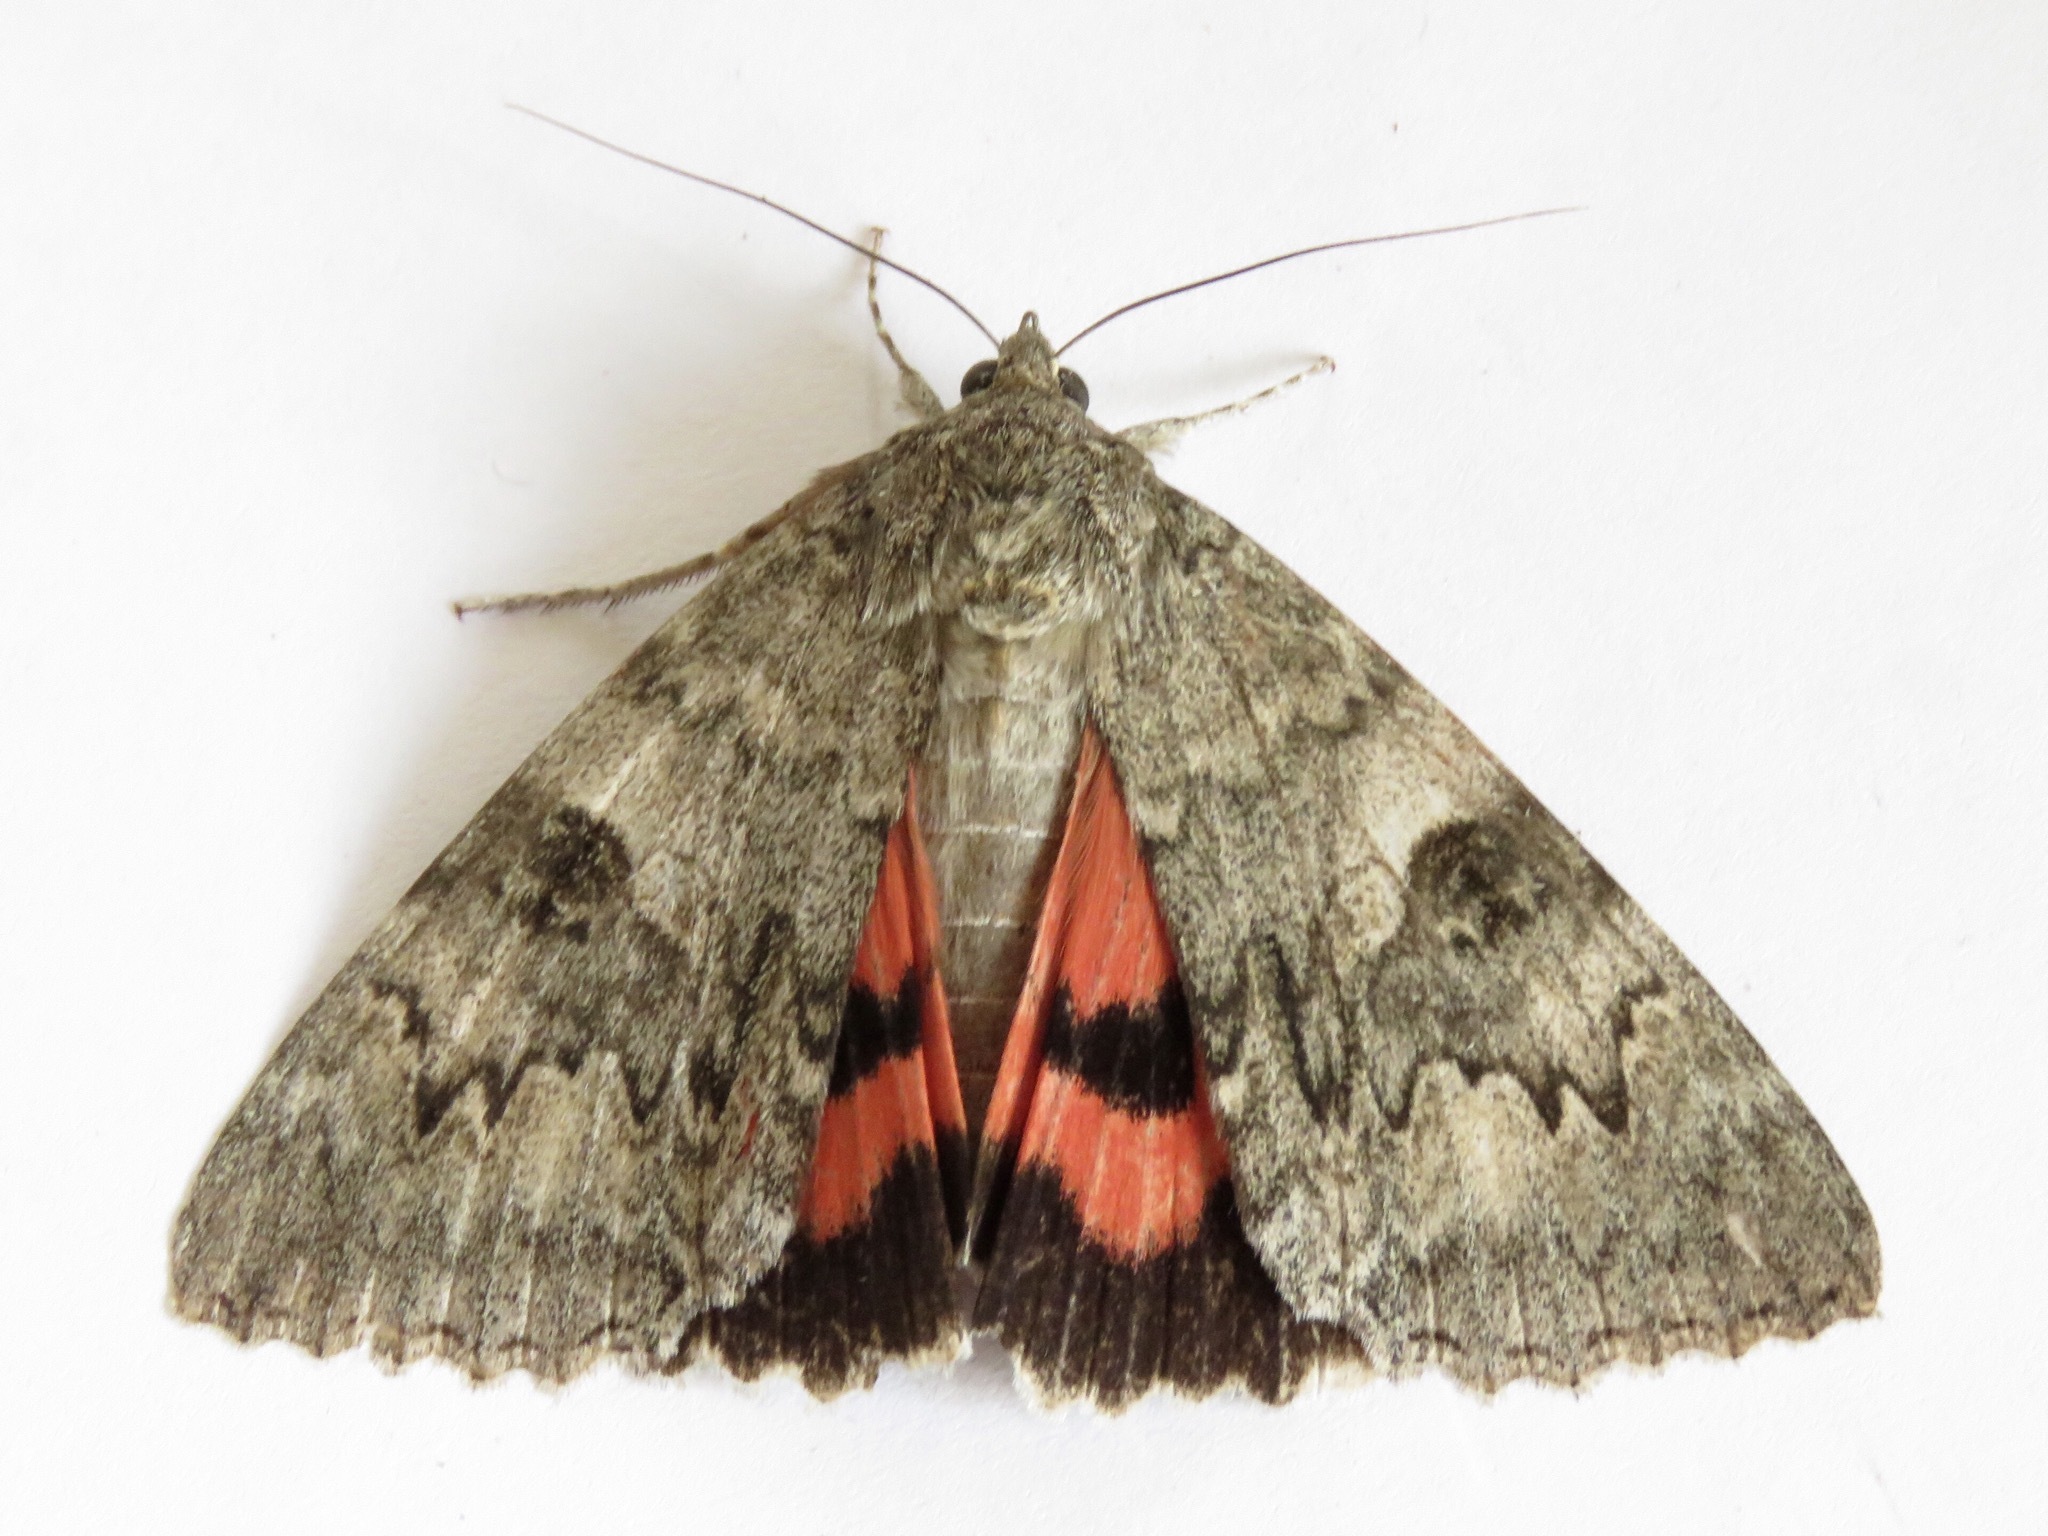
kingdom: Animalia
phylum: Arthropoda
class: Insecta
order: Lepidoptera
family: Erebidae
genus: Catocala
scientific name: Catocala nupta
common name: Red underwing
